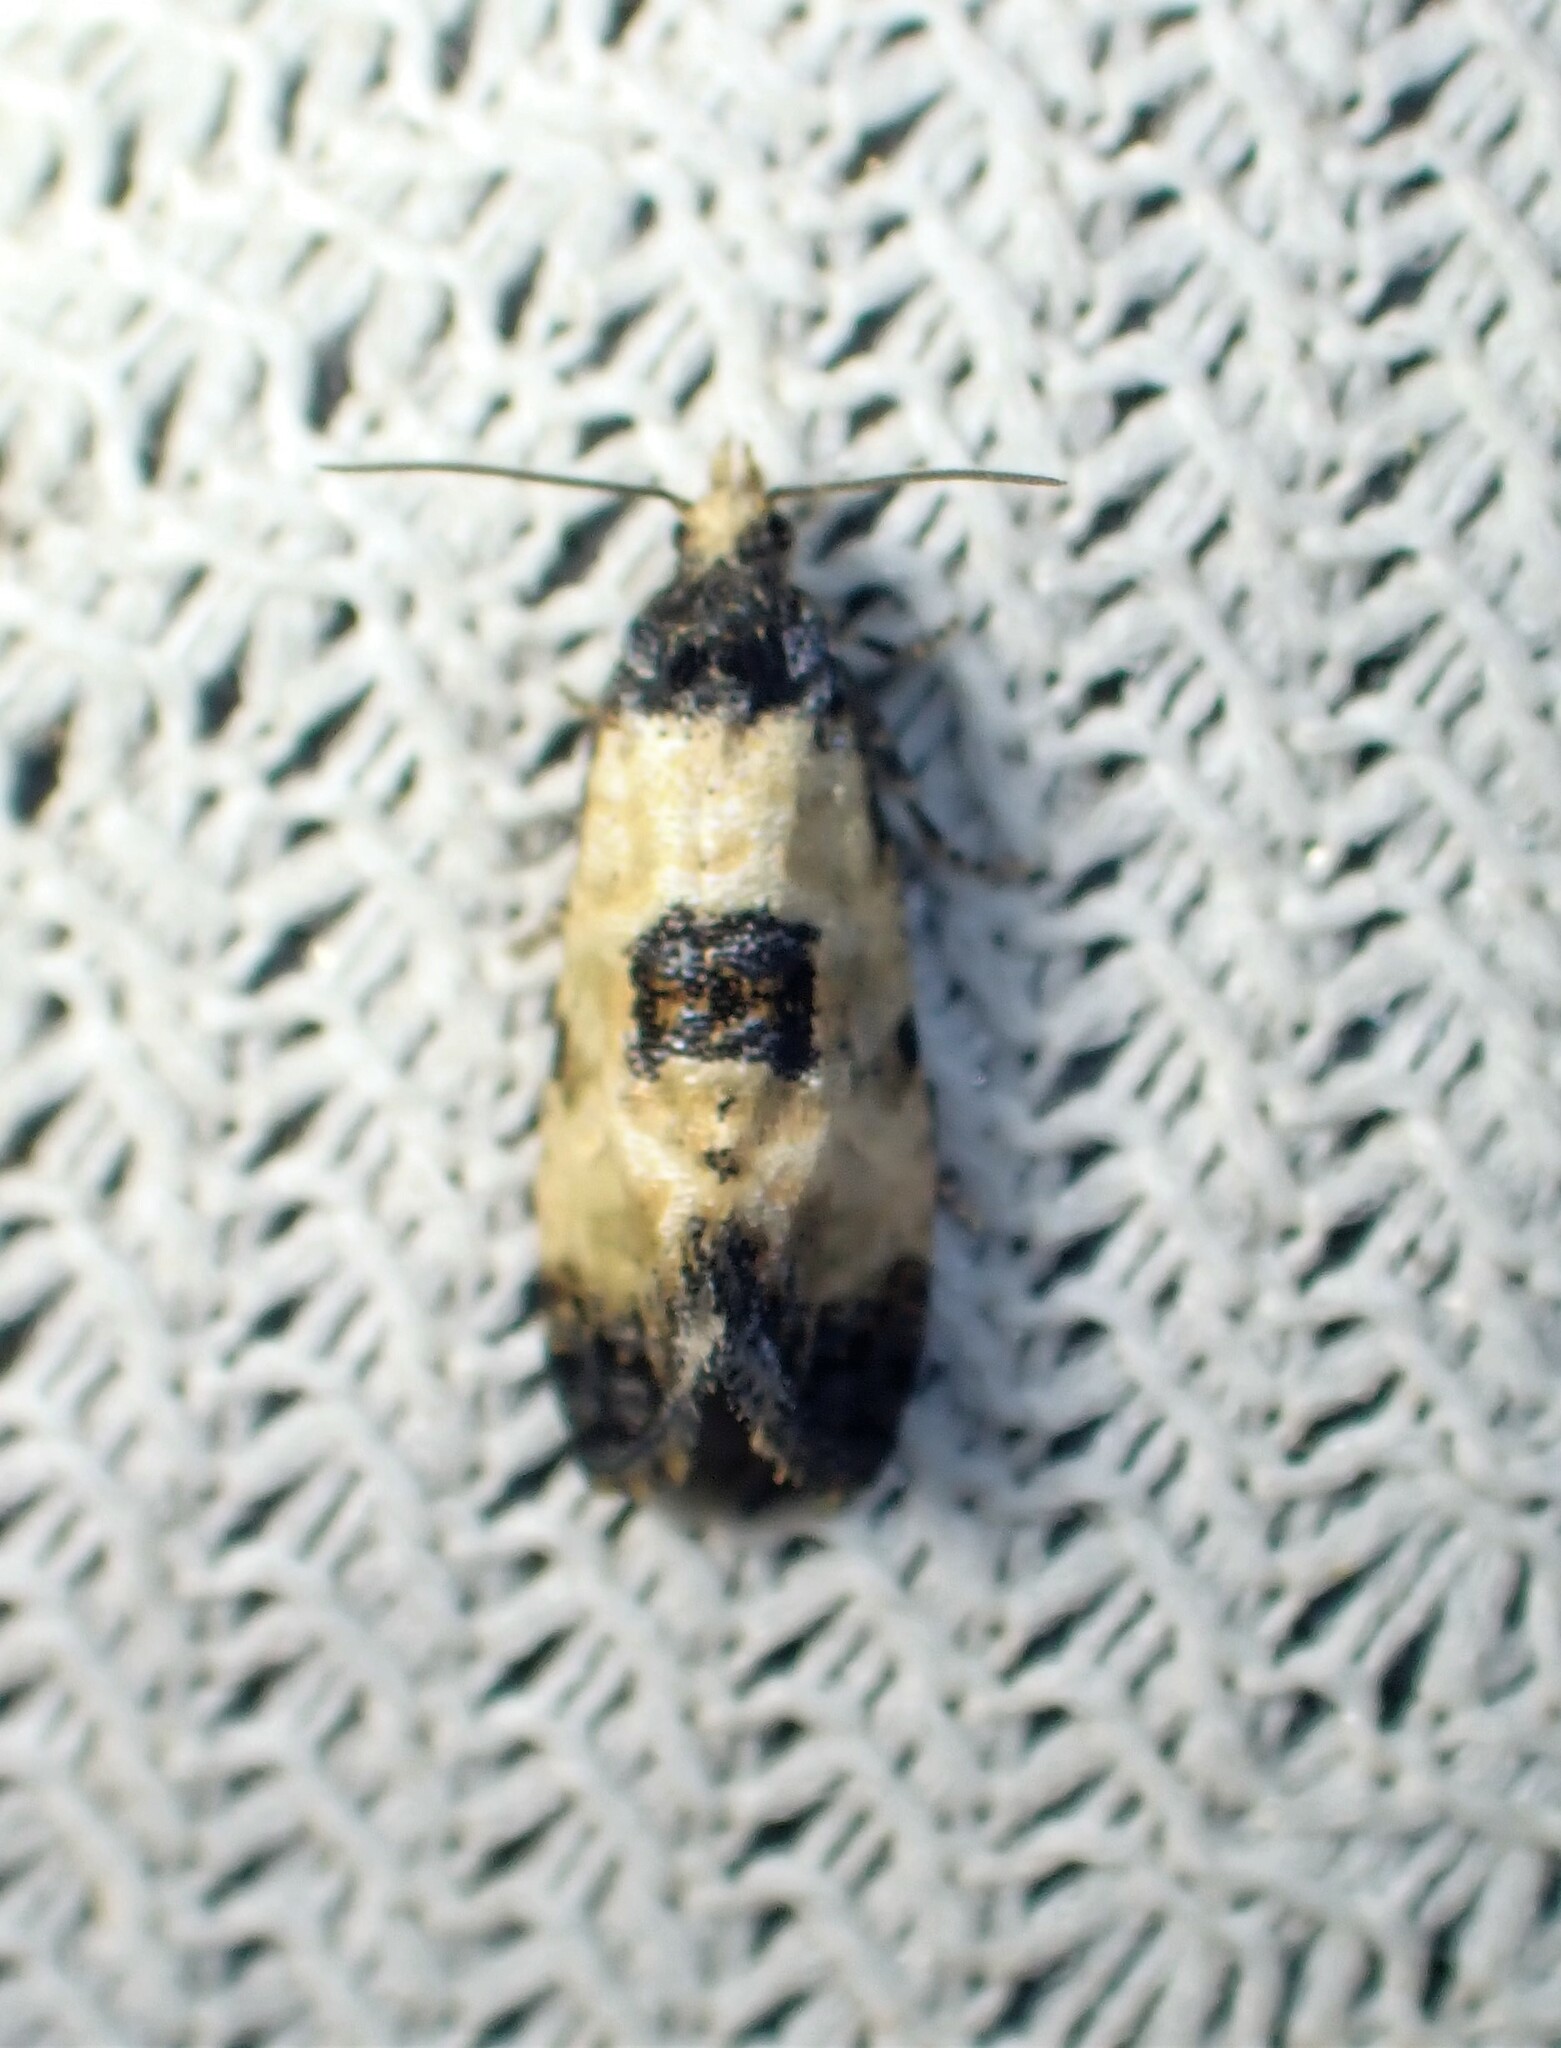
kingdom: Animalia
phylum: Arthropoda
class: Insecta
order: Lepidoptera
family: Tortricidae
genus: Cochylis
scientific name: Cochylis dubitana
